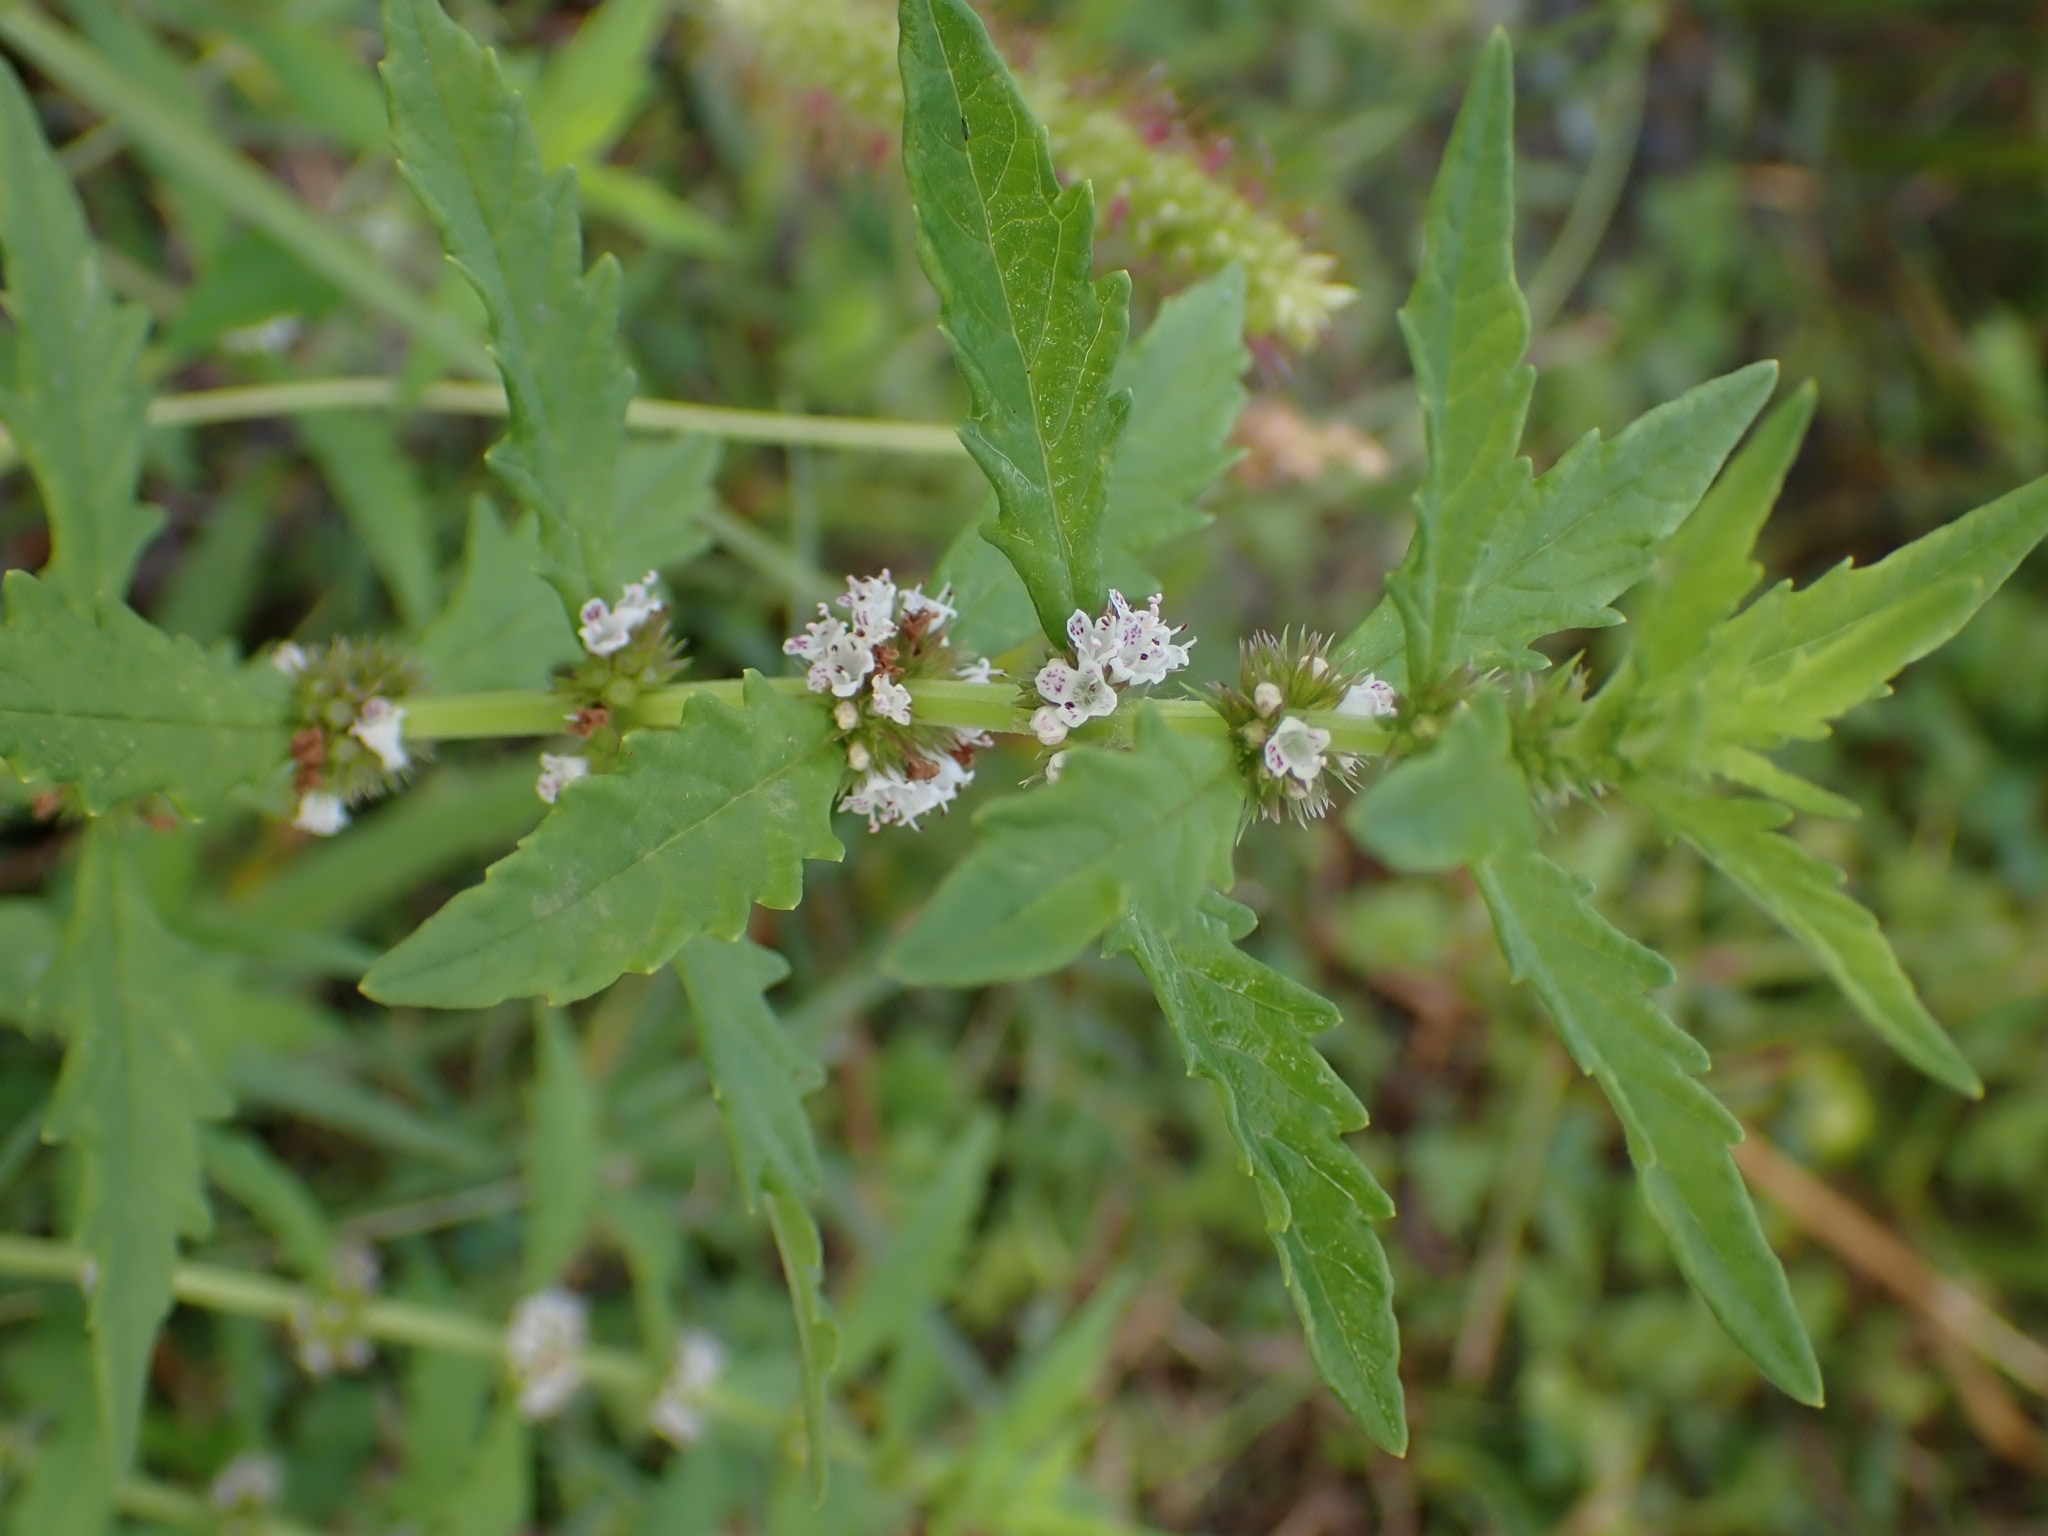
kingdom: Plantae
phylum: Tracheophyta
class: Magnoliopsida
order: Lamiales
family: Lamiaceae
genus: Lycopus
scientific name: Lycopus europaeus
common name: European bugleweed
